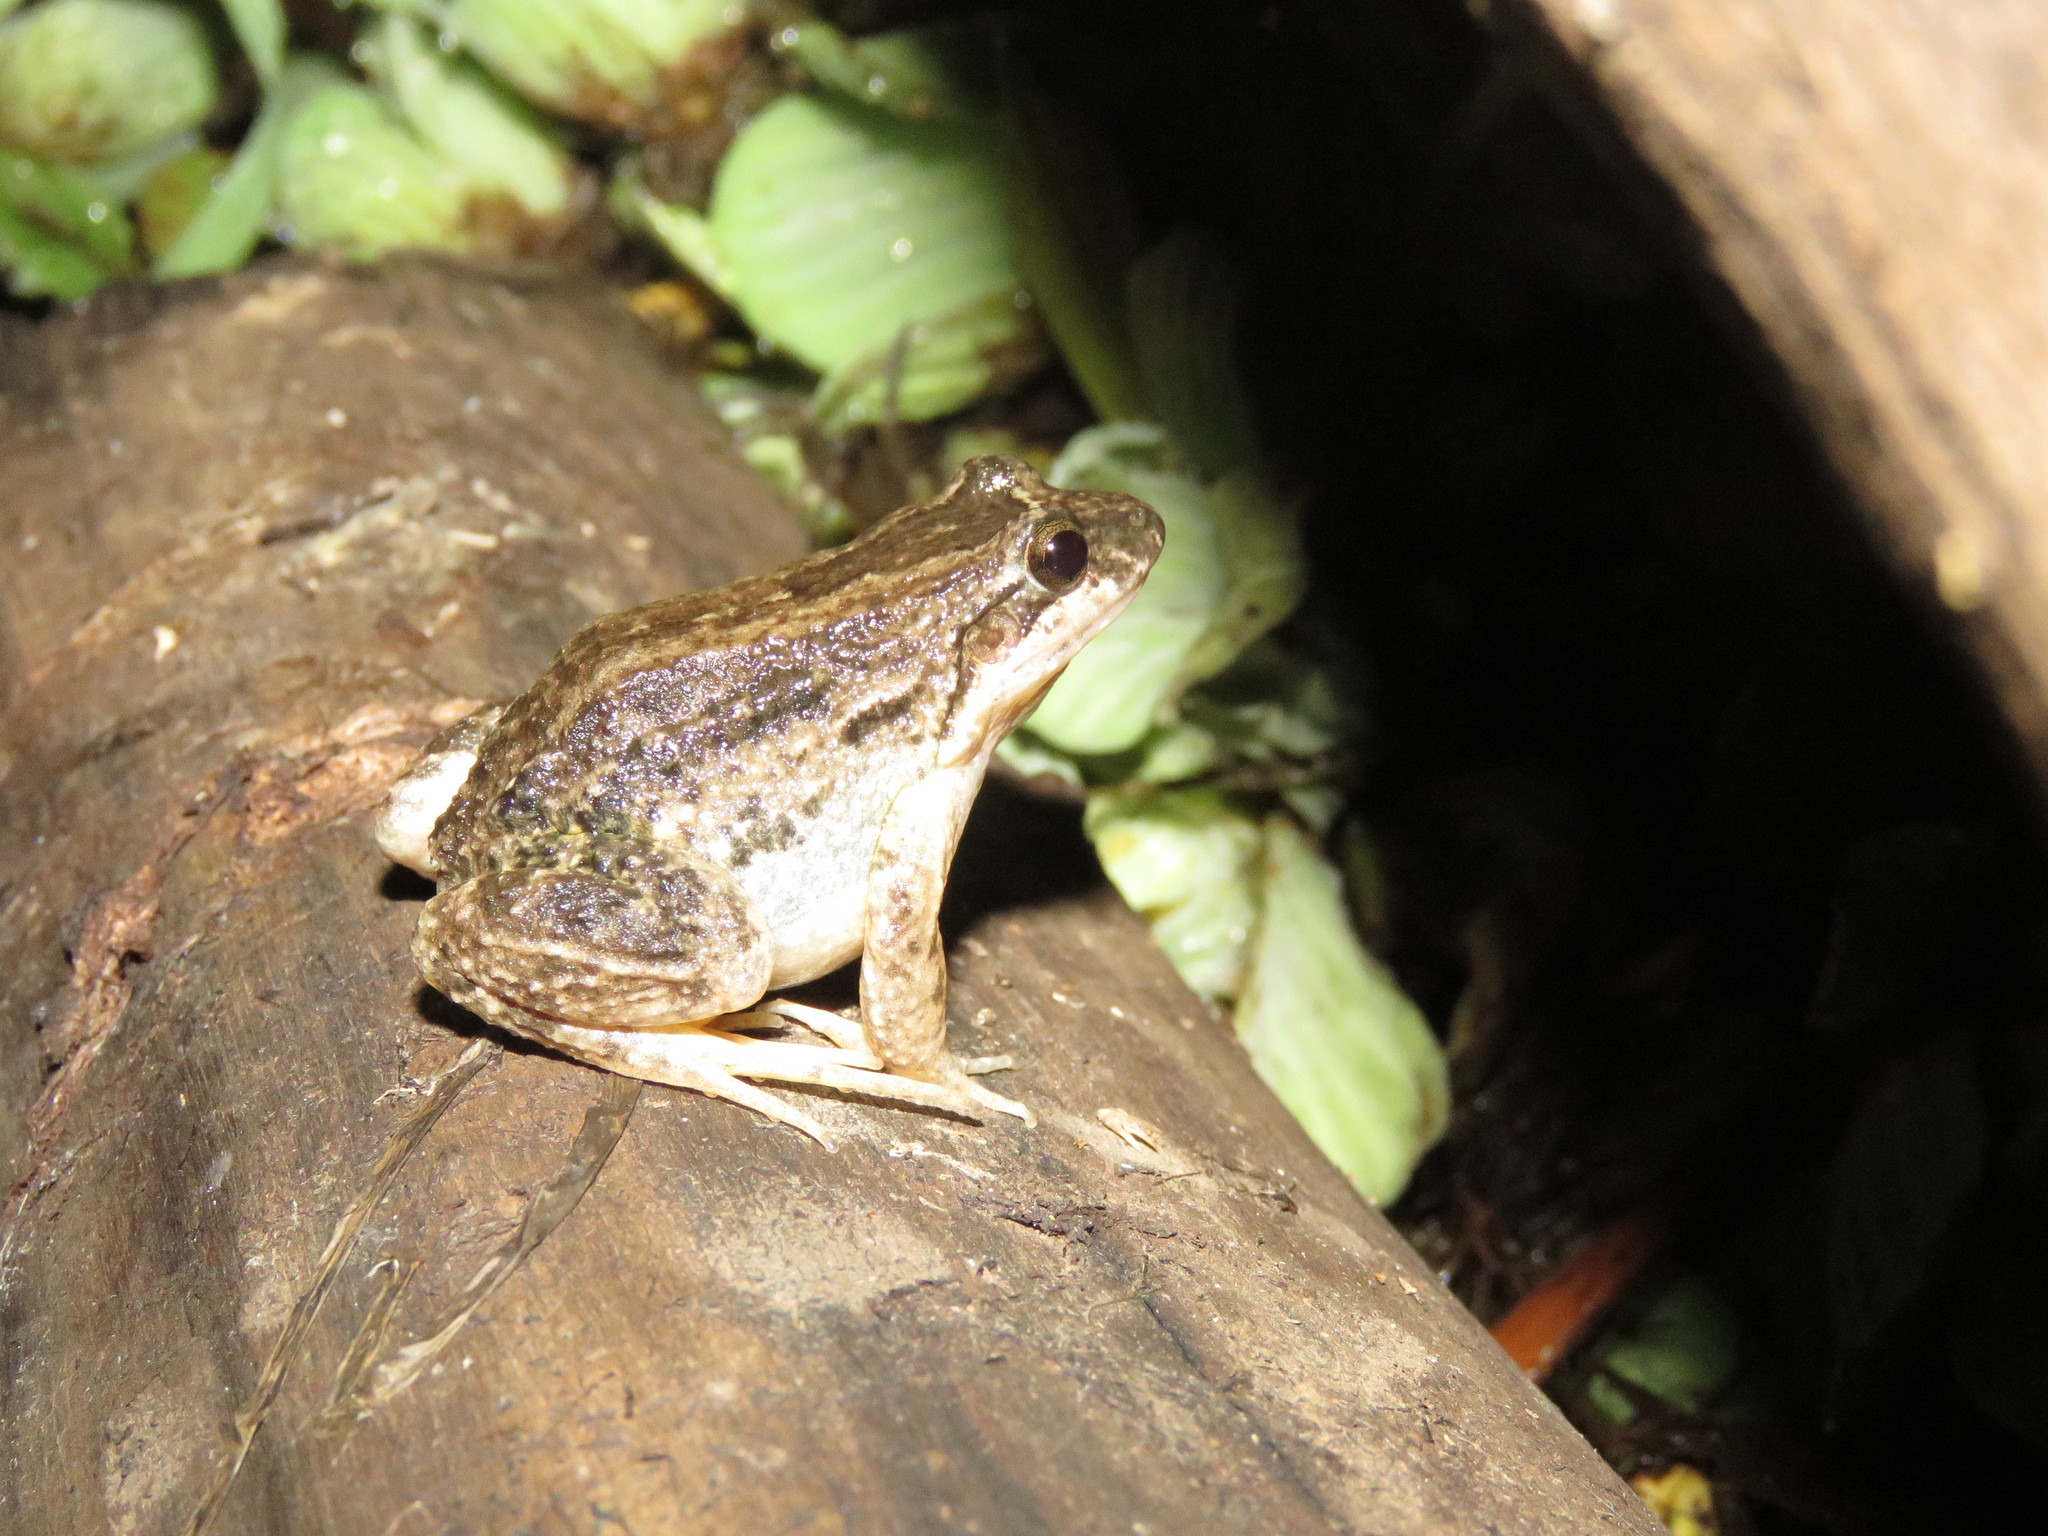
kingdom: Animalia
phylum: Chordata
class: Amphibia
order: Anura
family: Leptodactylidae
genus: Leptodactylus
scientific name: Leptodactylus petersii
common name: Peters' thin-toed frog
